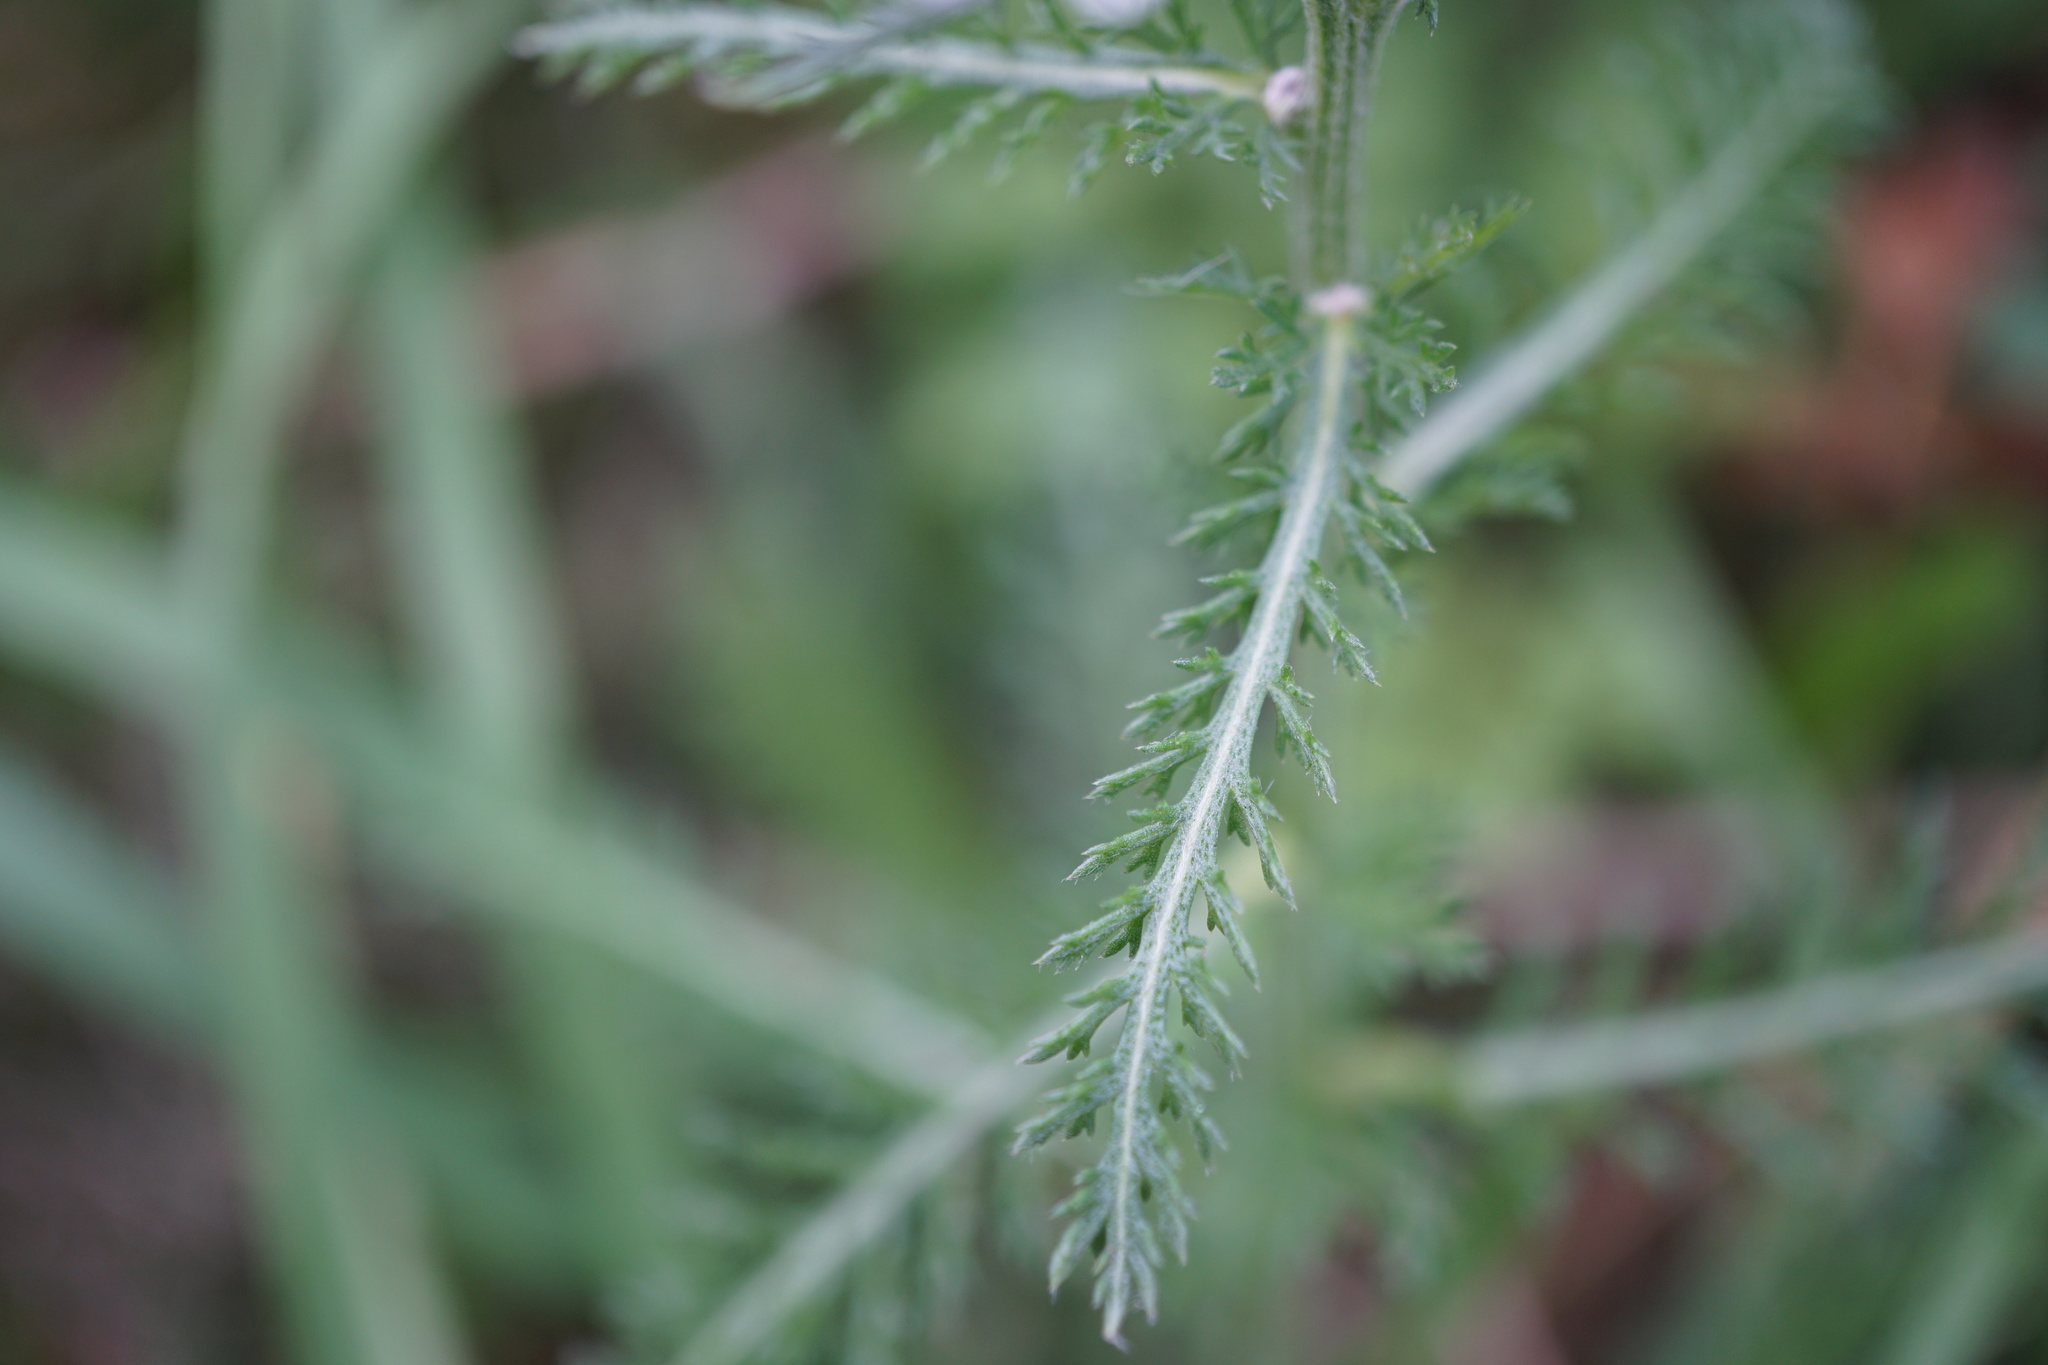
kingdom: Plantae
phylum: Tracheophyta
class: Magnoliopsida
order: Asterales
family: Asteraceae
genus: Achillea
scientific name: Achillea millefolium
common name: Yarrow
